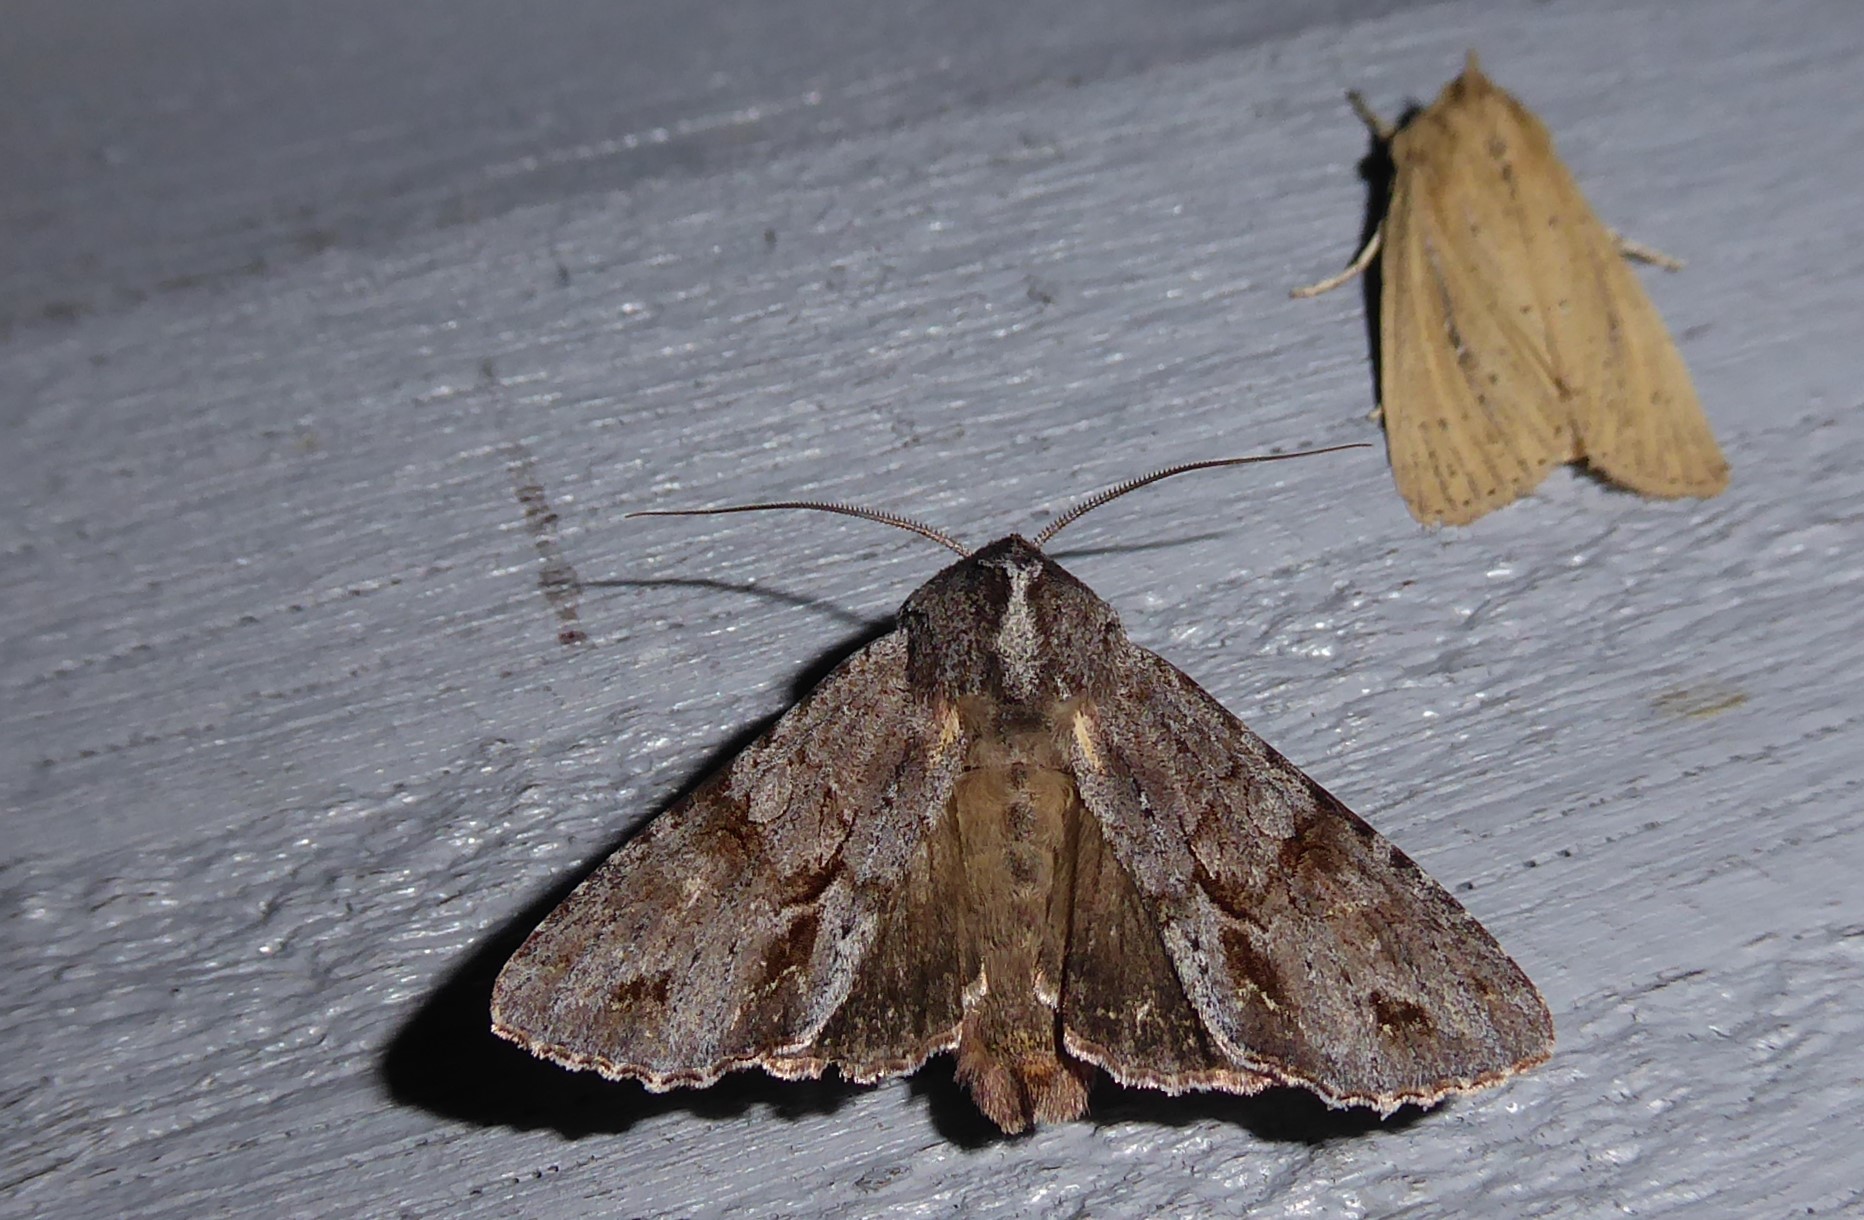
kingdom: Animalia
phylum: Arthropoda
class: Insecta
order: Lepidoptera
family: Noctuidae
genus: Ichneutica
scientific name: Ichneutica
